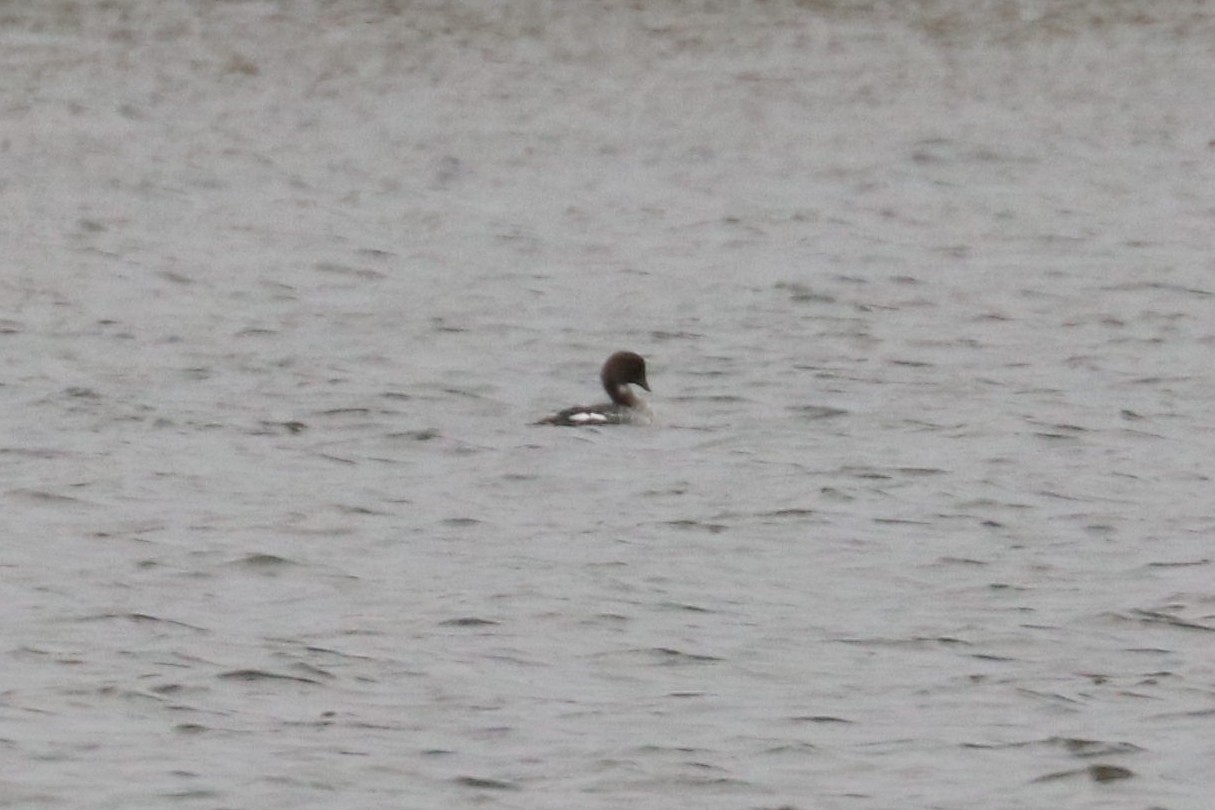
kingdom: Animalia
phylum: Chordata
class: Aves
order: Anseriformes
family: Anatidae
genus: Bucephala
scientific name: Bucephala clangula
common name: Common goldeneye
